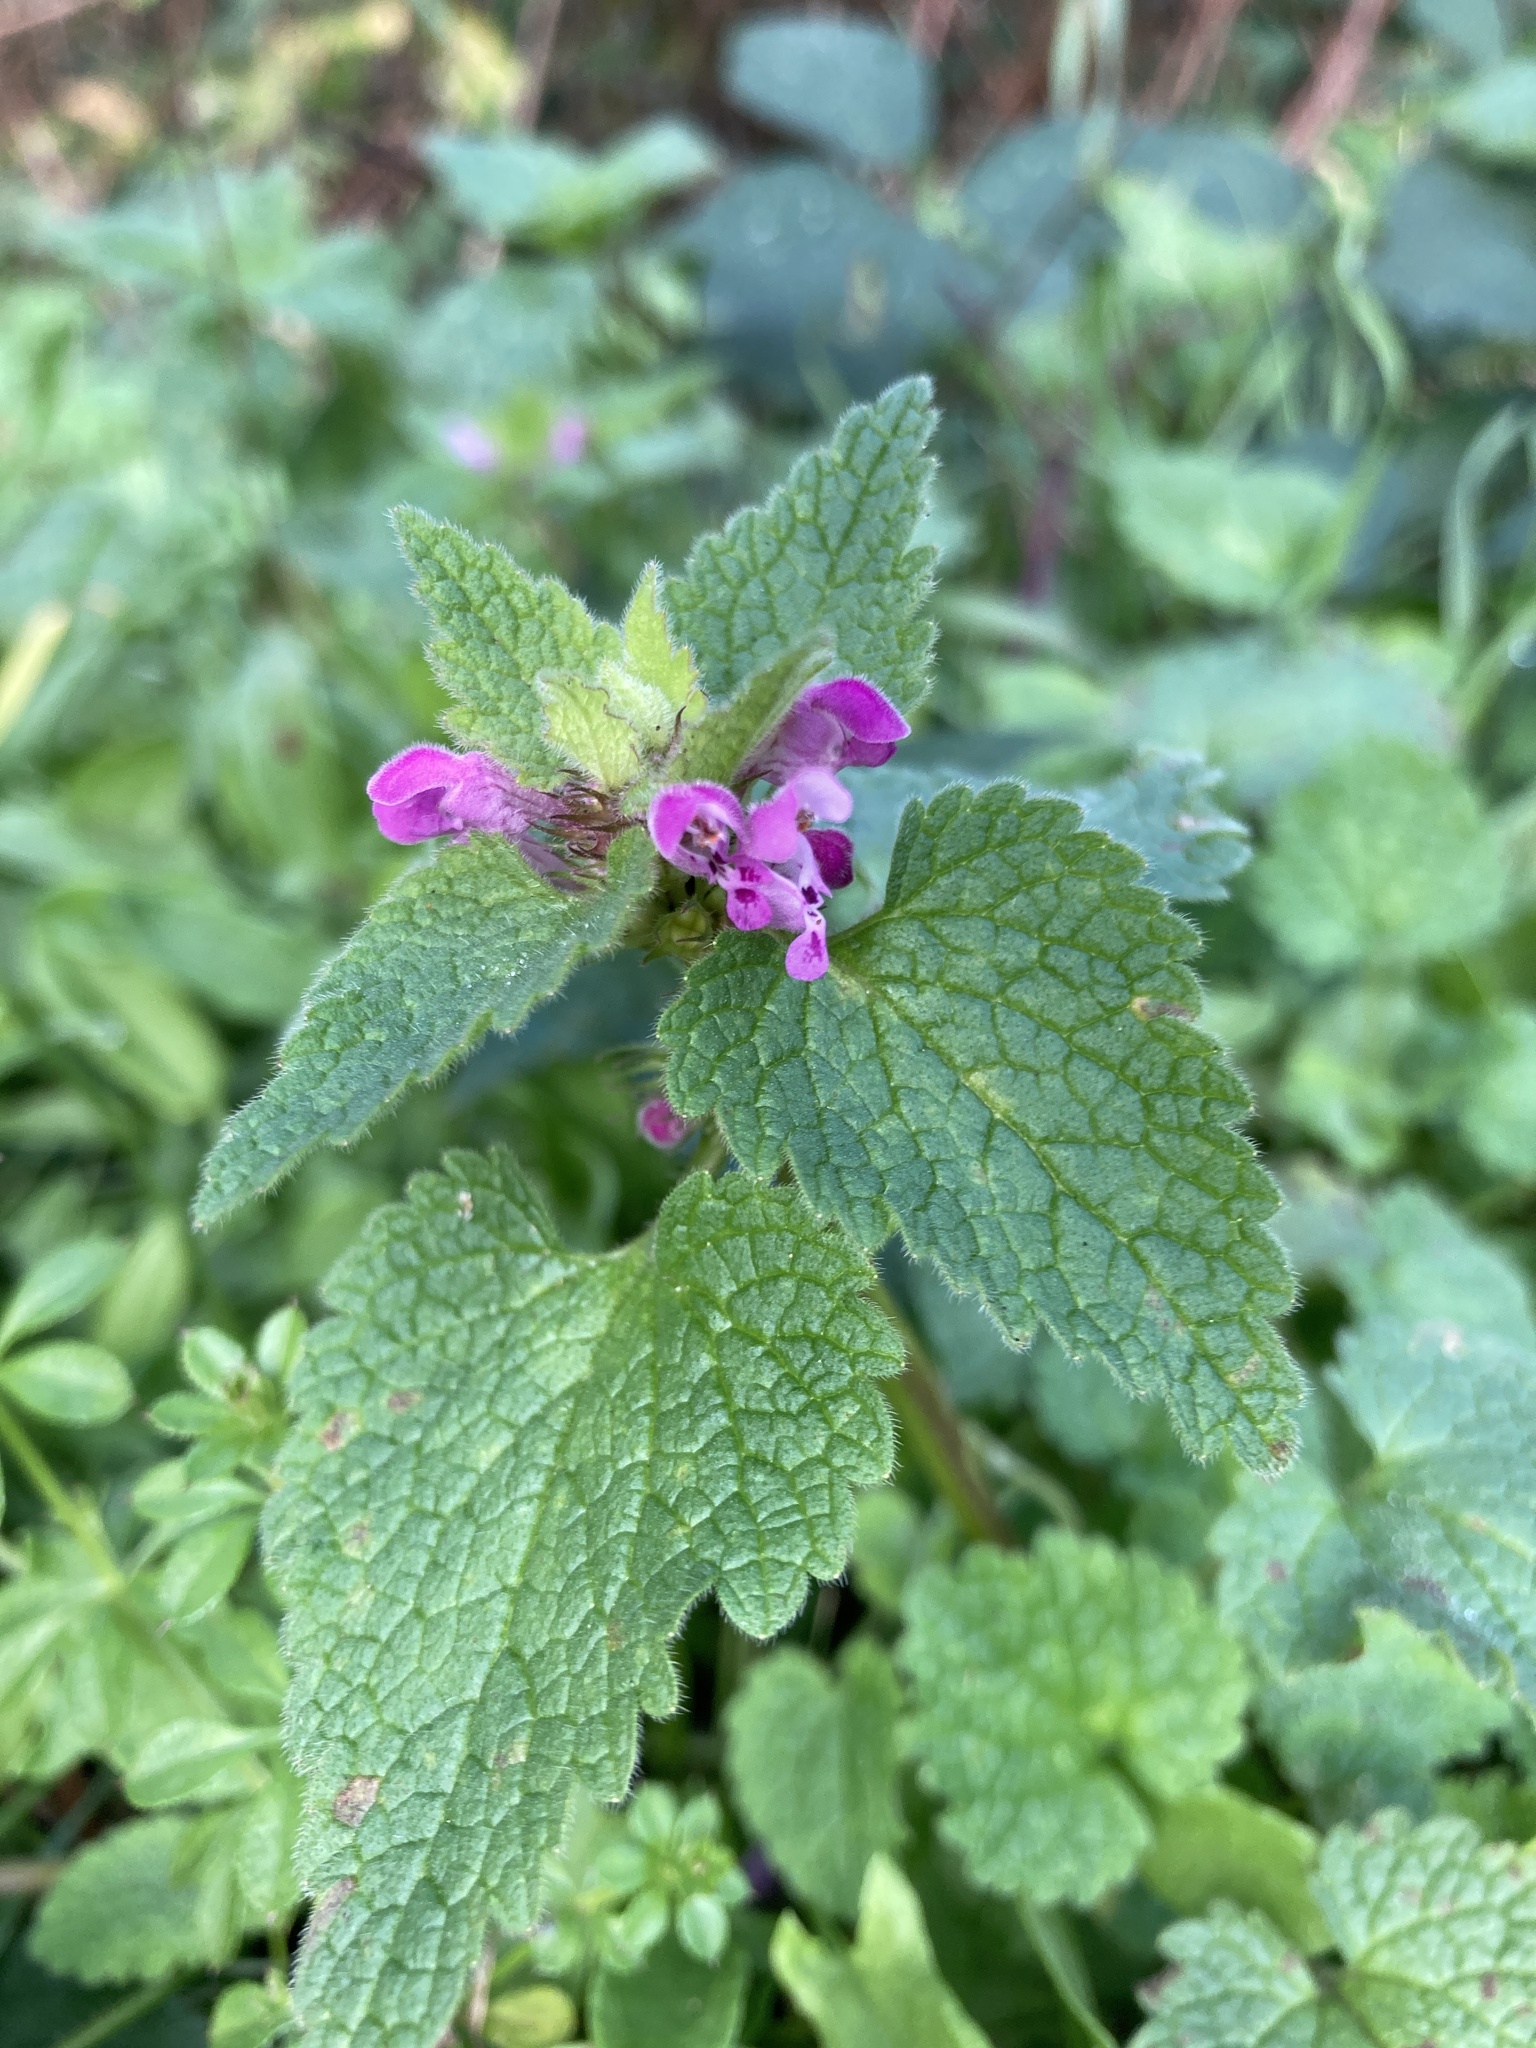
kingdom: Plantae
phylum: Tracheophyta
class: Magnoliopsida
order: Lamiales
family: Lamiaceae
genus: Lamium
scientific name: Lamium purpureum
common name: Red dead-nettle
